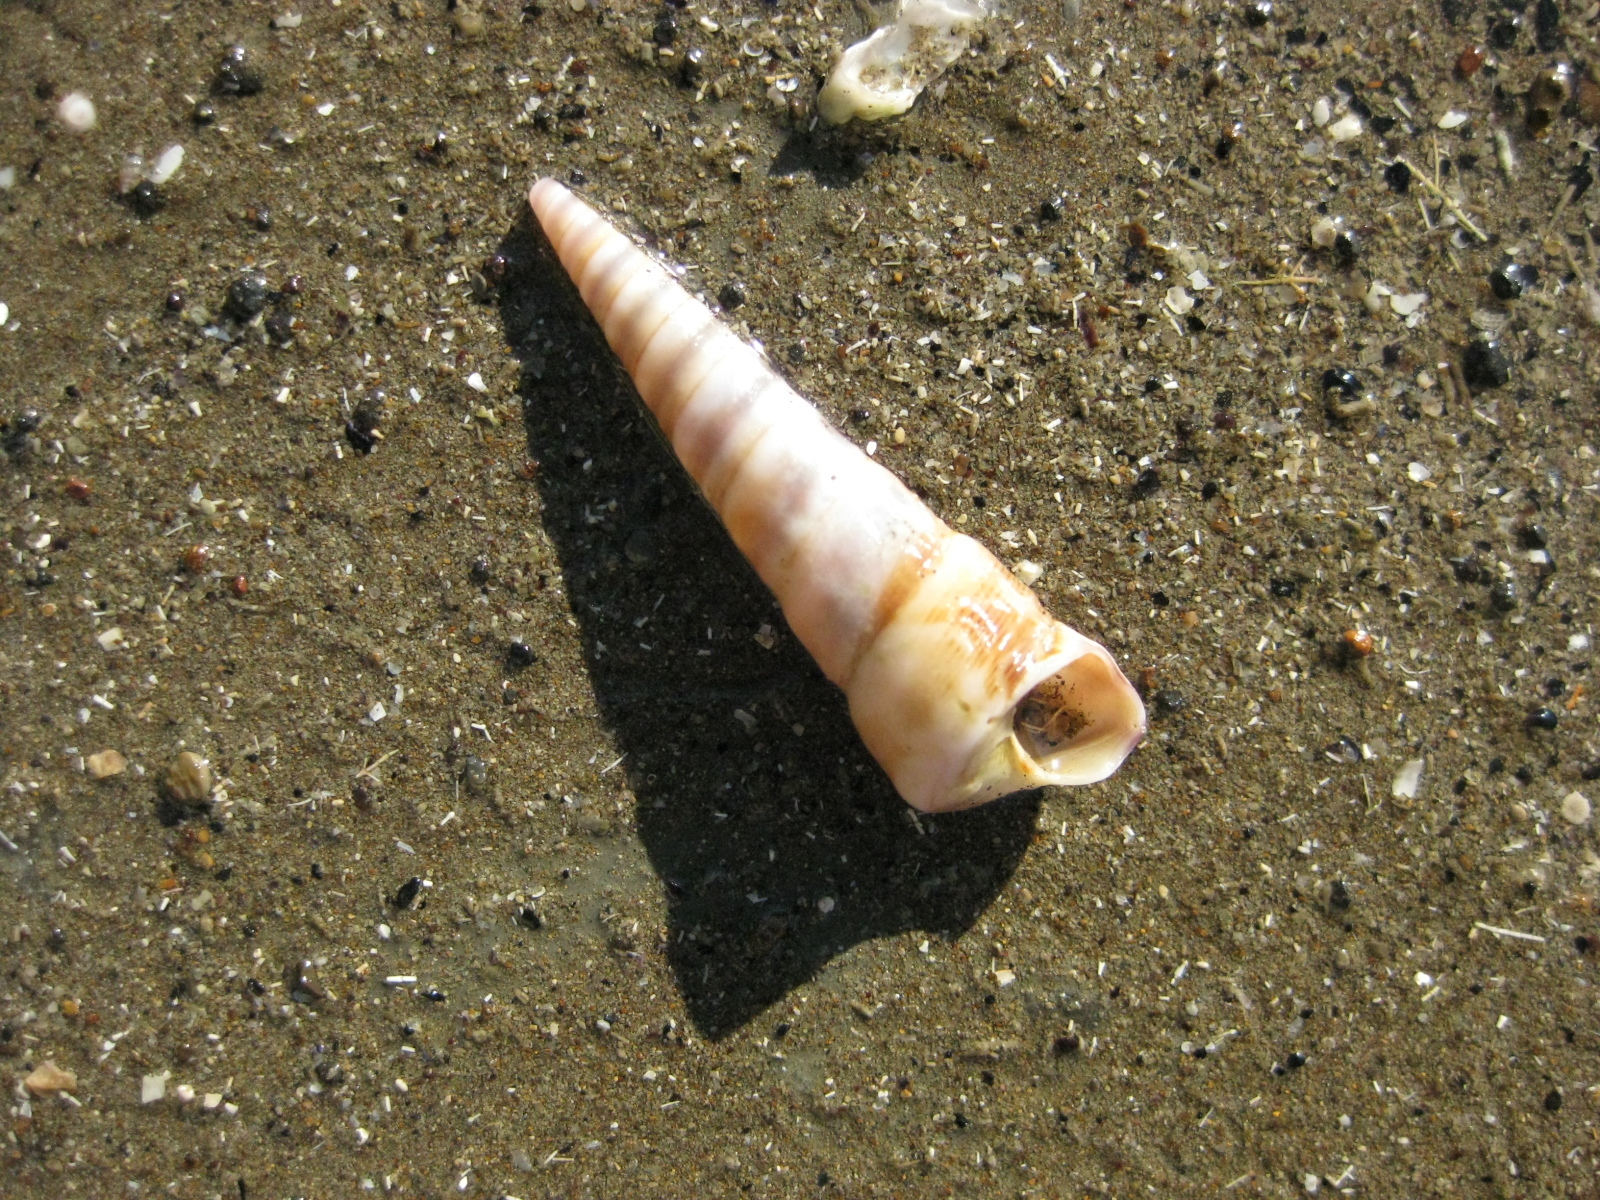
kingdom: Animalia
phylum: Mollusca
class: Gastropoda
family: Turritellidae
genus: Maoricolpus
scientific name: Maoricolpus roseus
